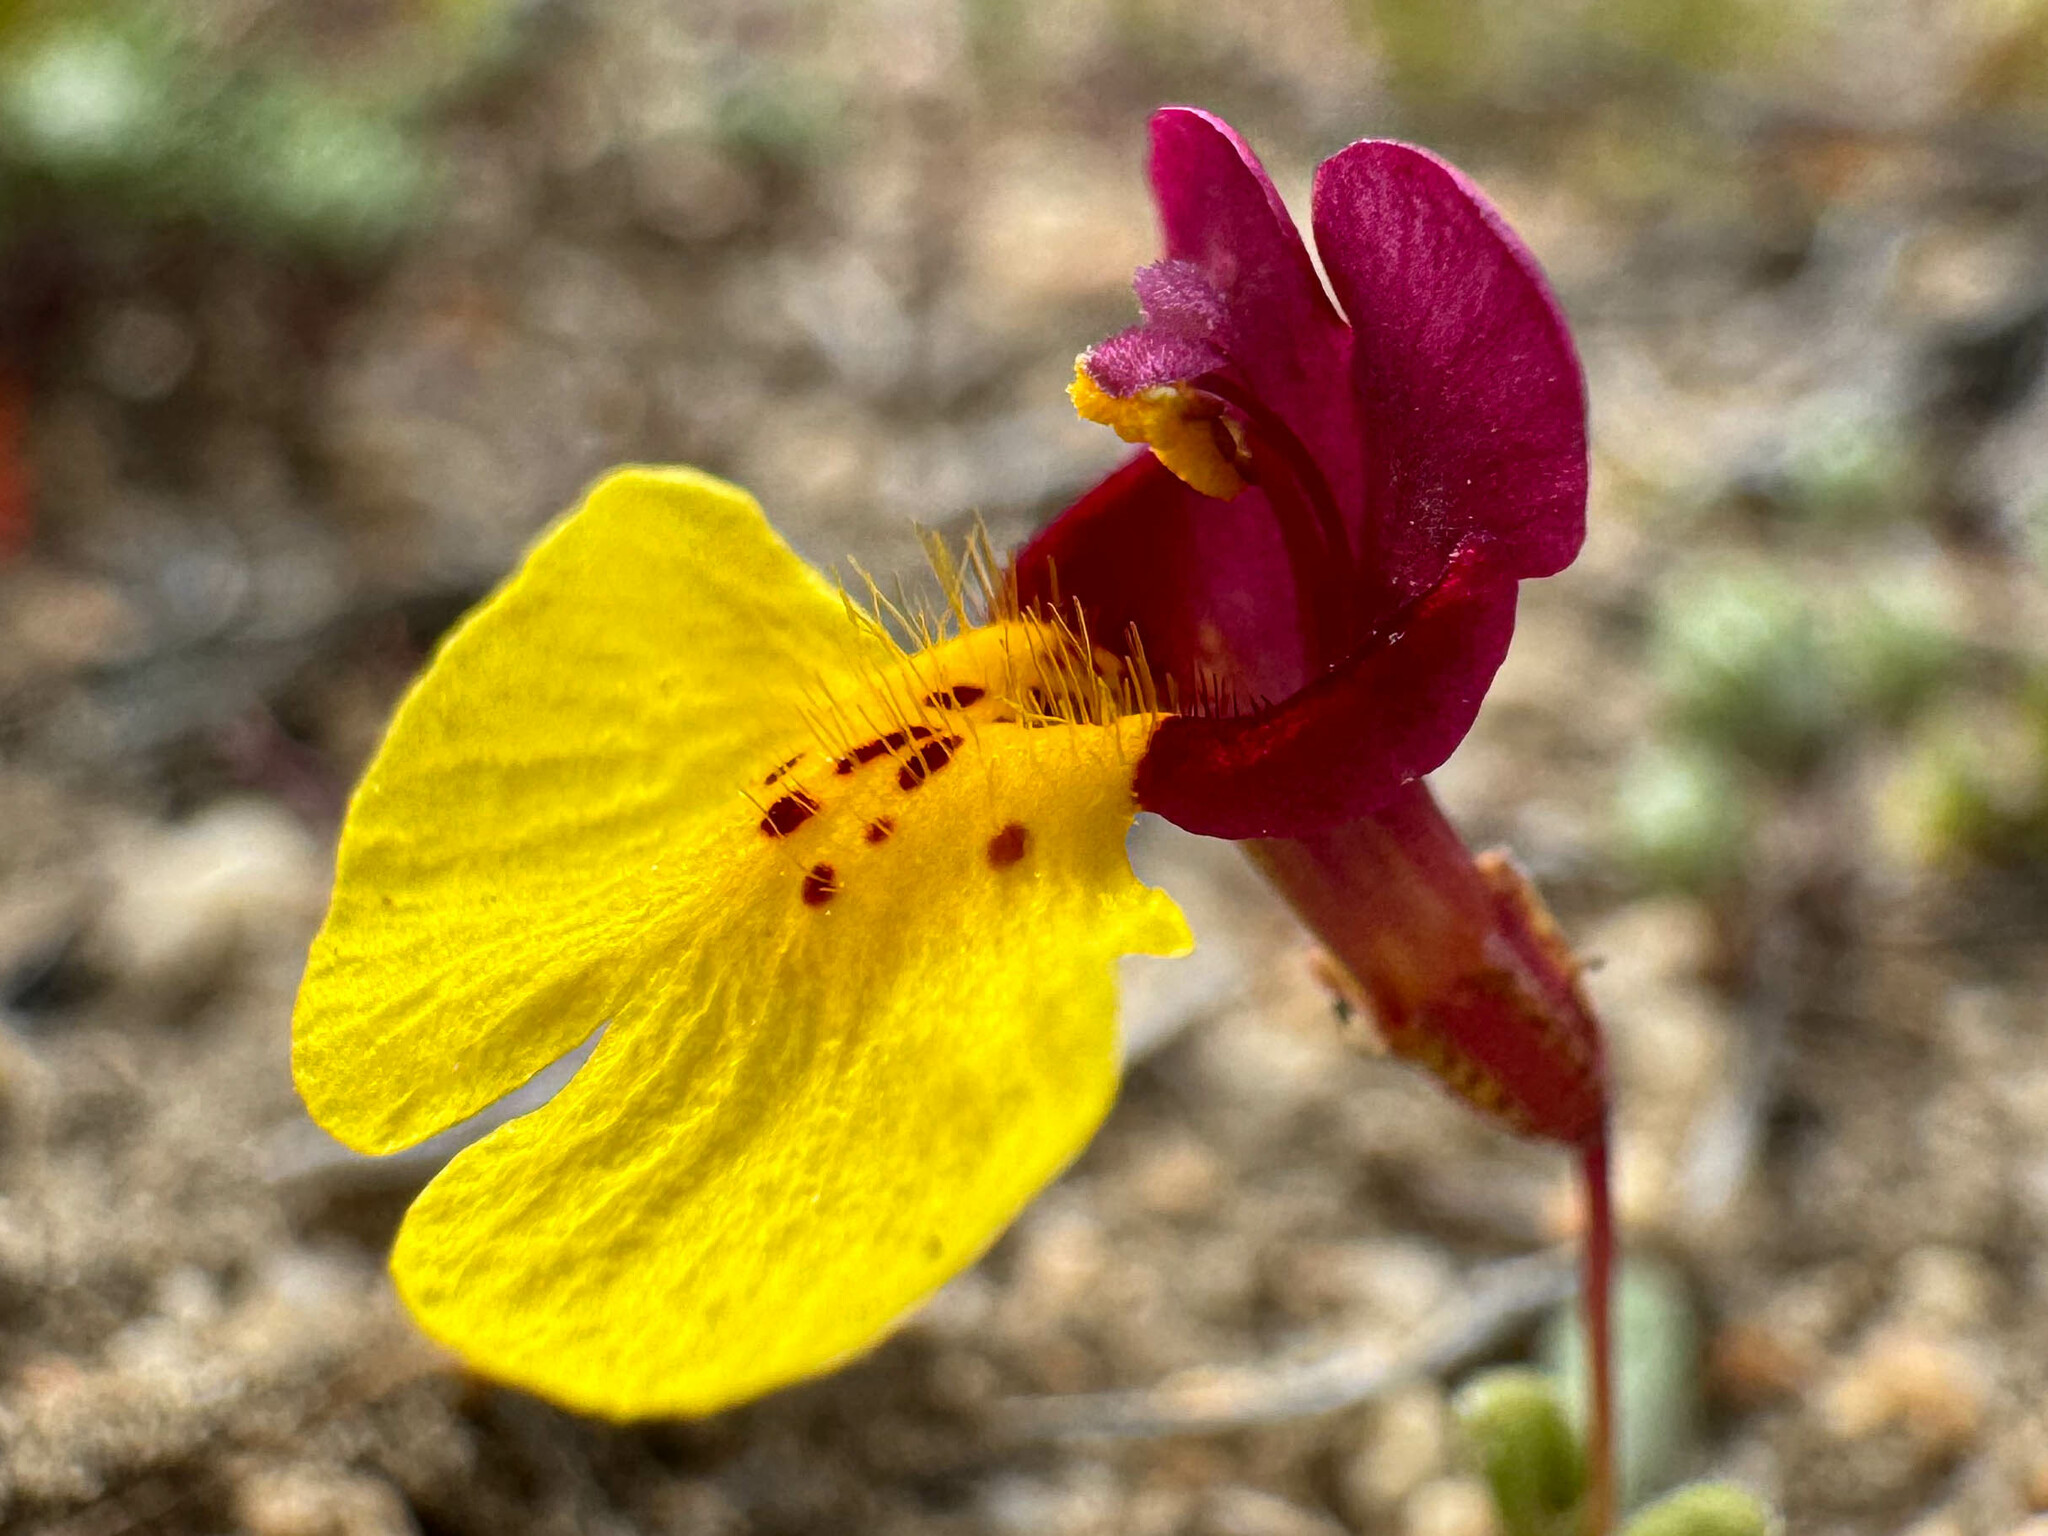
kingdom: Plantae
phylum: Tracheophyta
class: Magnoliopsida
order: Lamiales
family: Phrymaceae
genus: Erythranthe
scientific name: Erythranthe shevockii
